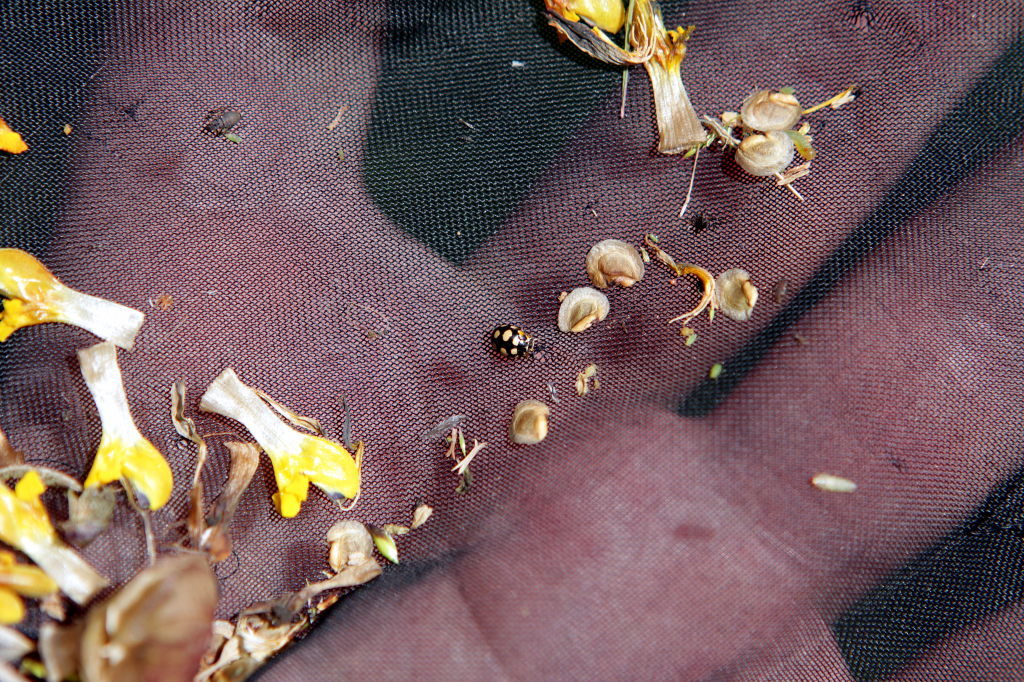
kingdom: Animalia
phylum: Arthropoda
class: Insecta
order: Coleoptera
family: Coccinellidae
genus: Coccinula
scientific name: Coccinula quatuordecimpustulata
